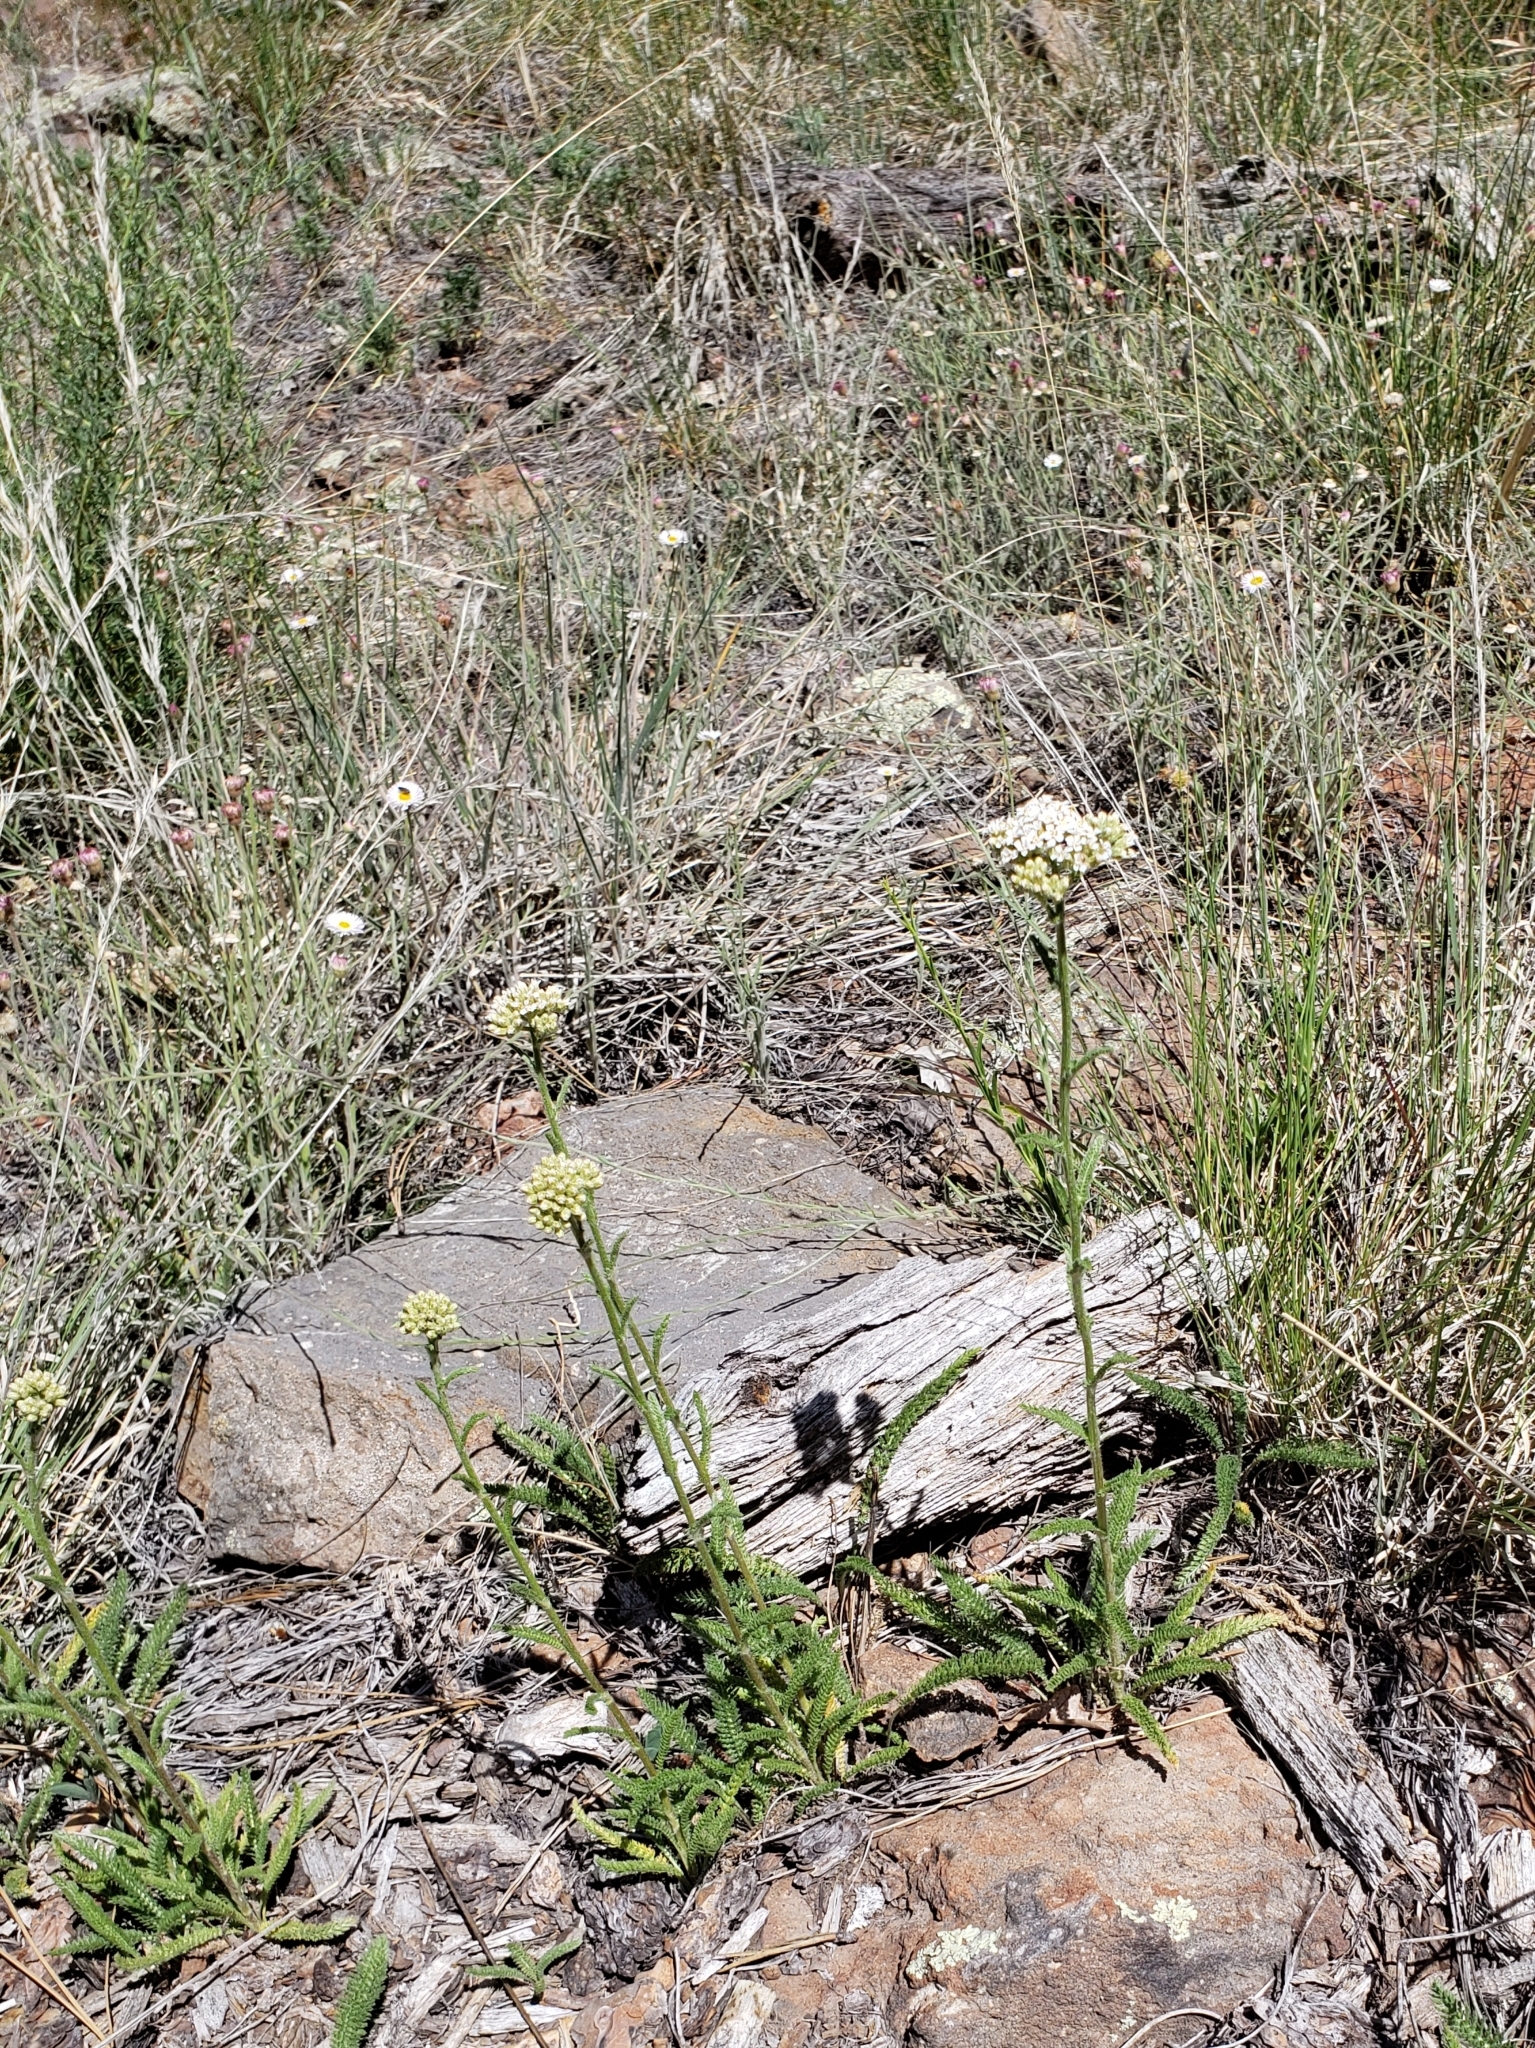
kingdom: Plantae
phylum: Tracheophyta
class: Magnoliopsida
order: Asterales
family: Asteraceae
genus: Achillea
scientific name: Achillea millefolium
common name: Yarrow
